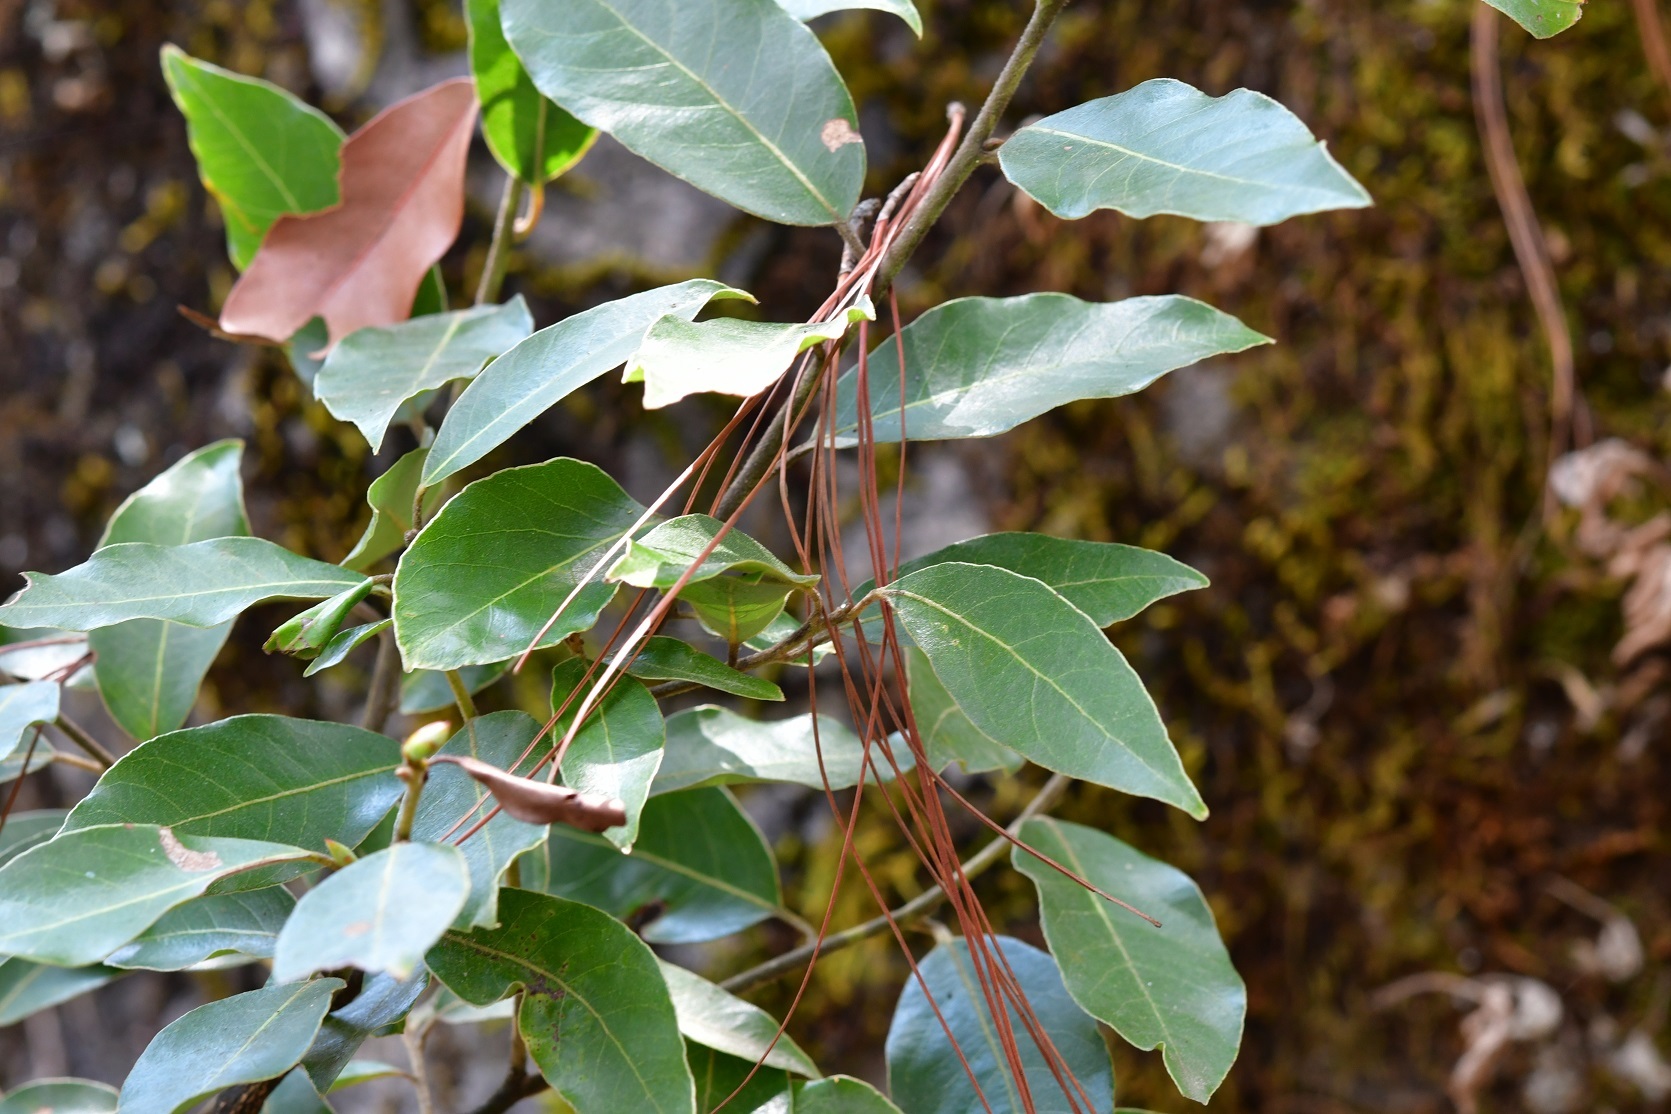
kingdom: Plantae
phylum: Tracheophyta
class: Magnoliopsida
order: Laurales
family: Lauraceae
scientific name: Lauraceae
